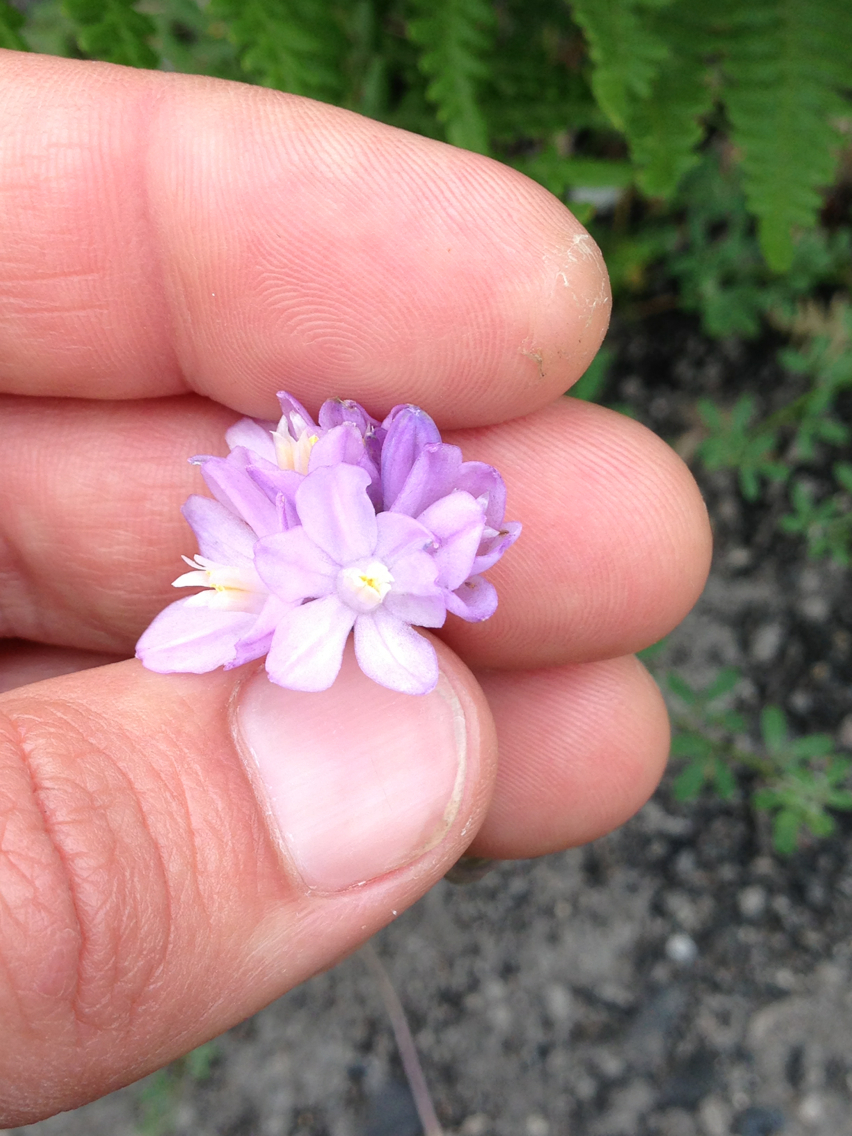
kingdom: Plantae
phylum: Tracheophyta
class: Liliopsida
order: Asparagales
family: Asparagaceae
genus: Dipterostemon
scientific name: Dipterostemon capitatus
